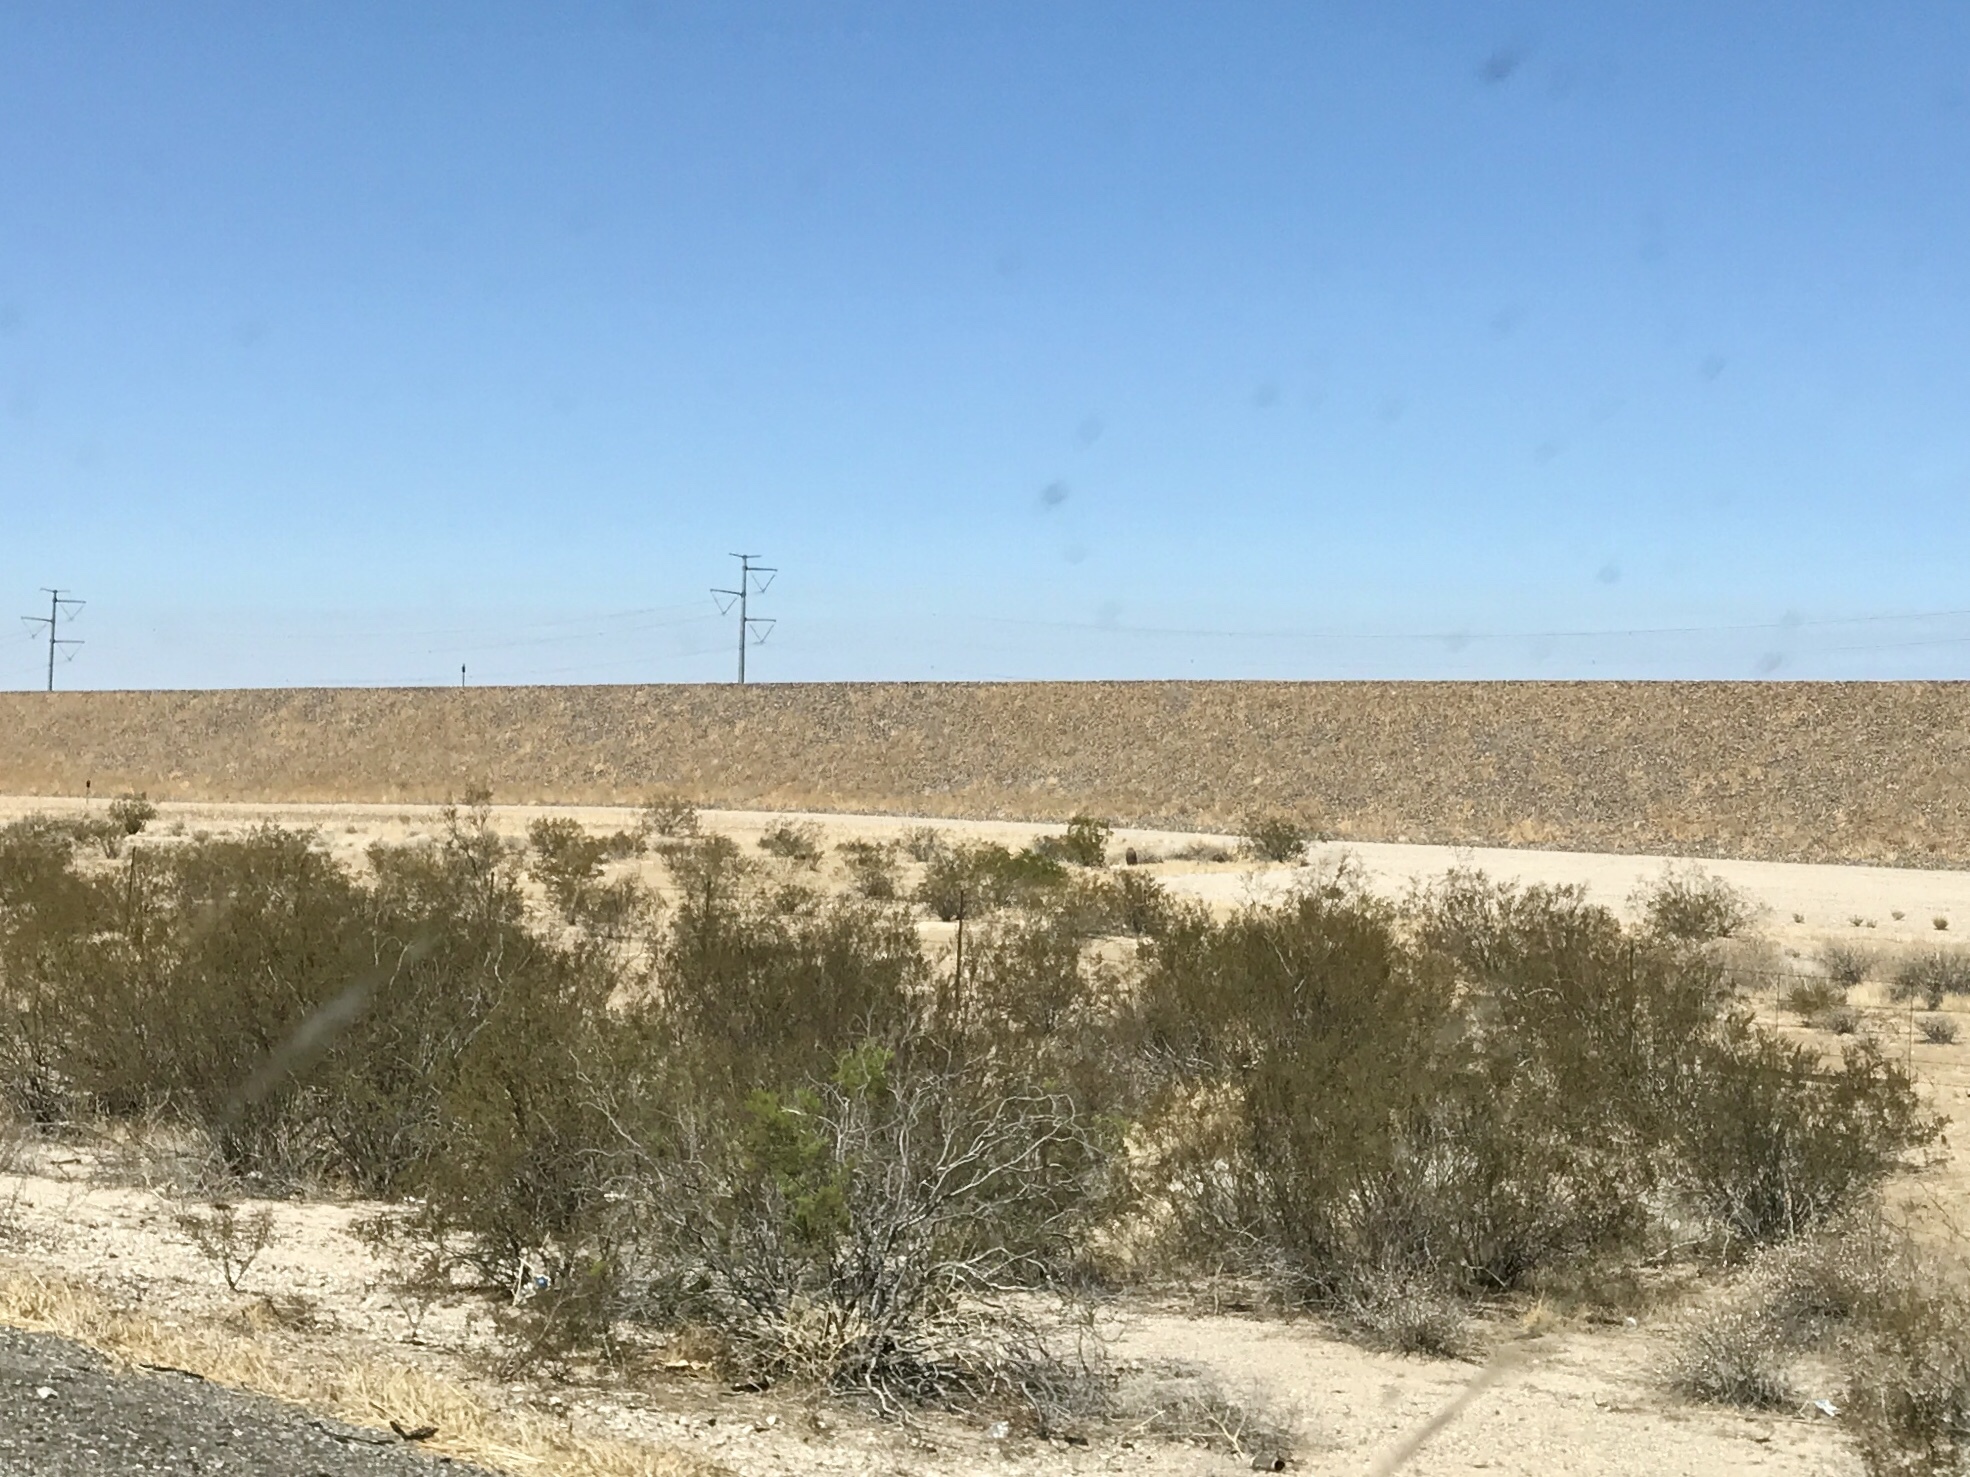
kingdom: Plantae
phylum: Tracheophyta
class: Magnoliopsida
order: Zygophyllales
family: Zygophyllaceae
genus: Larrea
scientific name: Larrea tridentata
